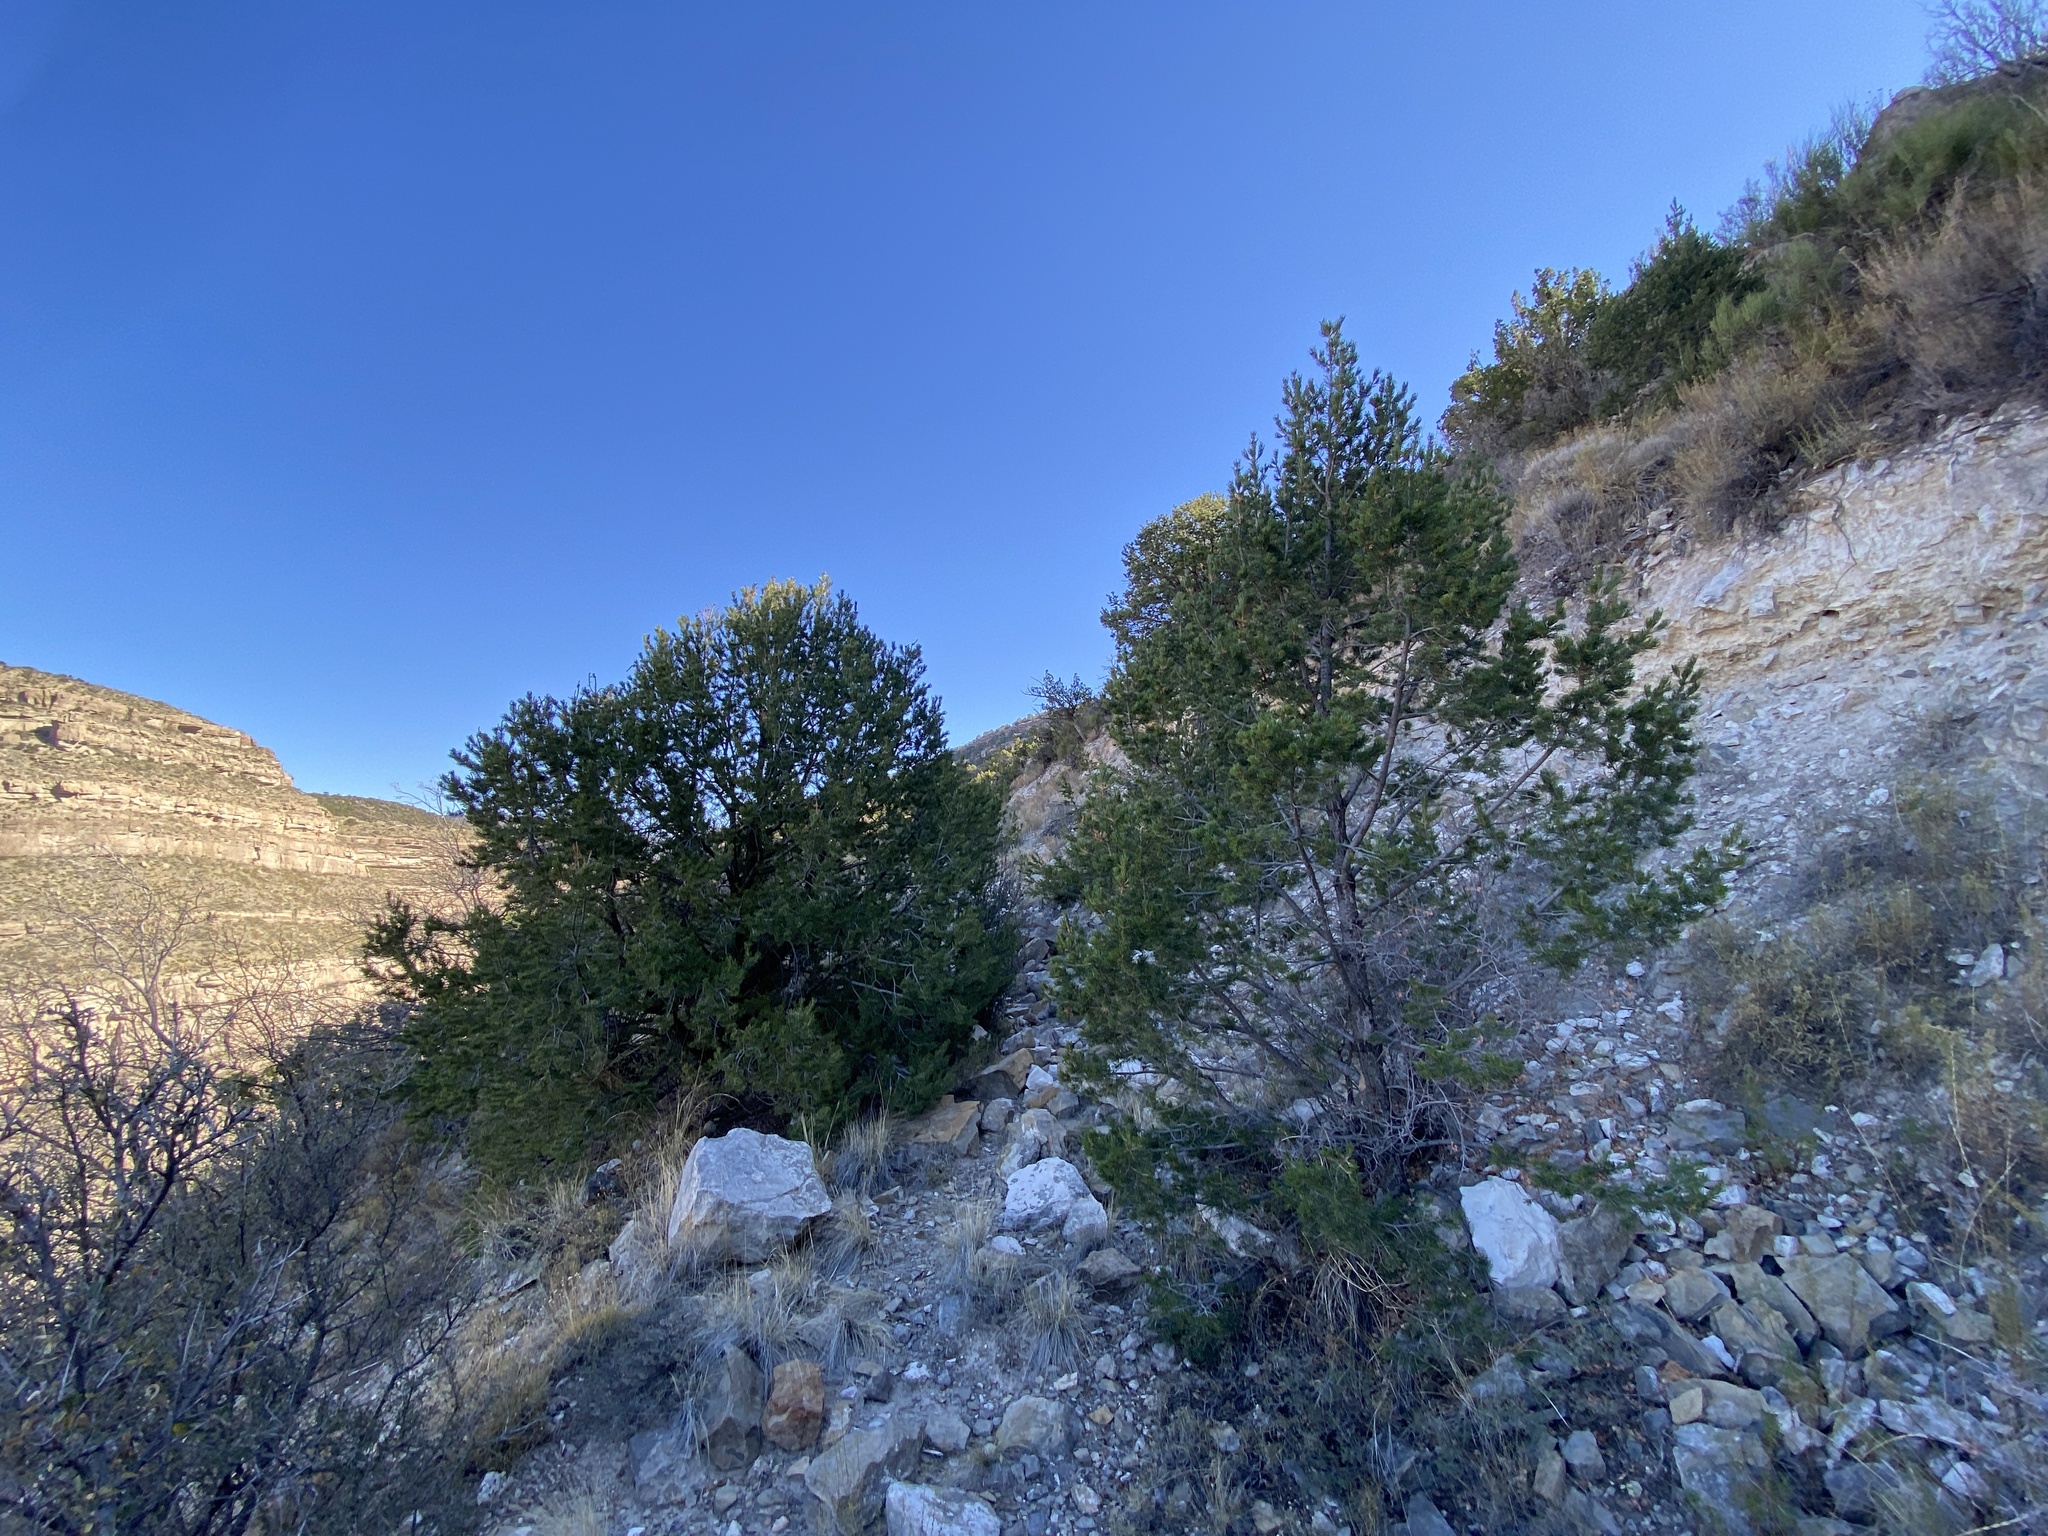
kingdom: Plantae
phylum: Tracheophyta
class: Pinopsida
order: Pinales
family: Pinaceae
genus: Pinus
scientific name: Pinus edulis
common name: Colorado pinyon
